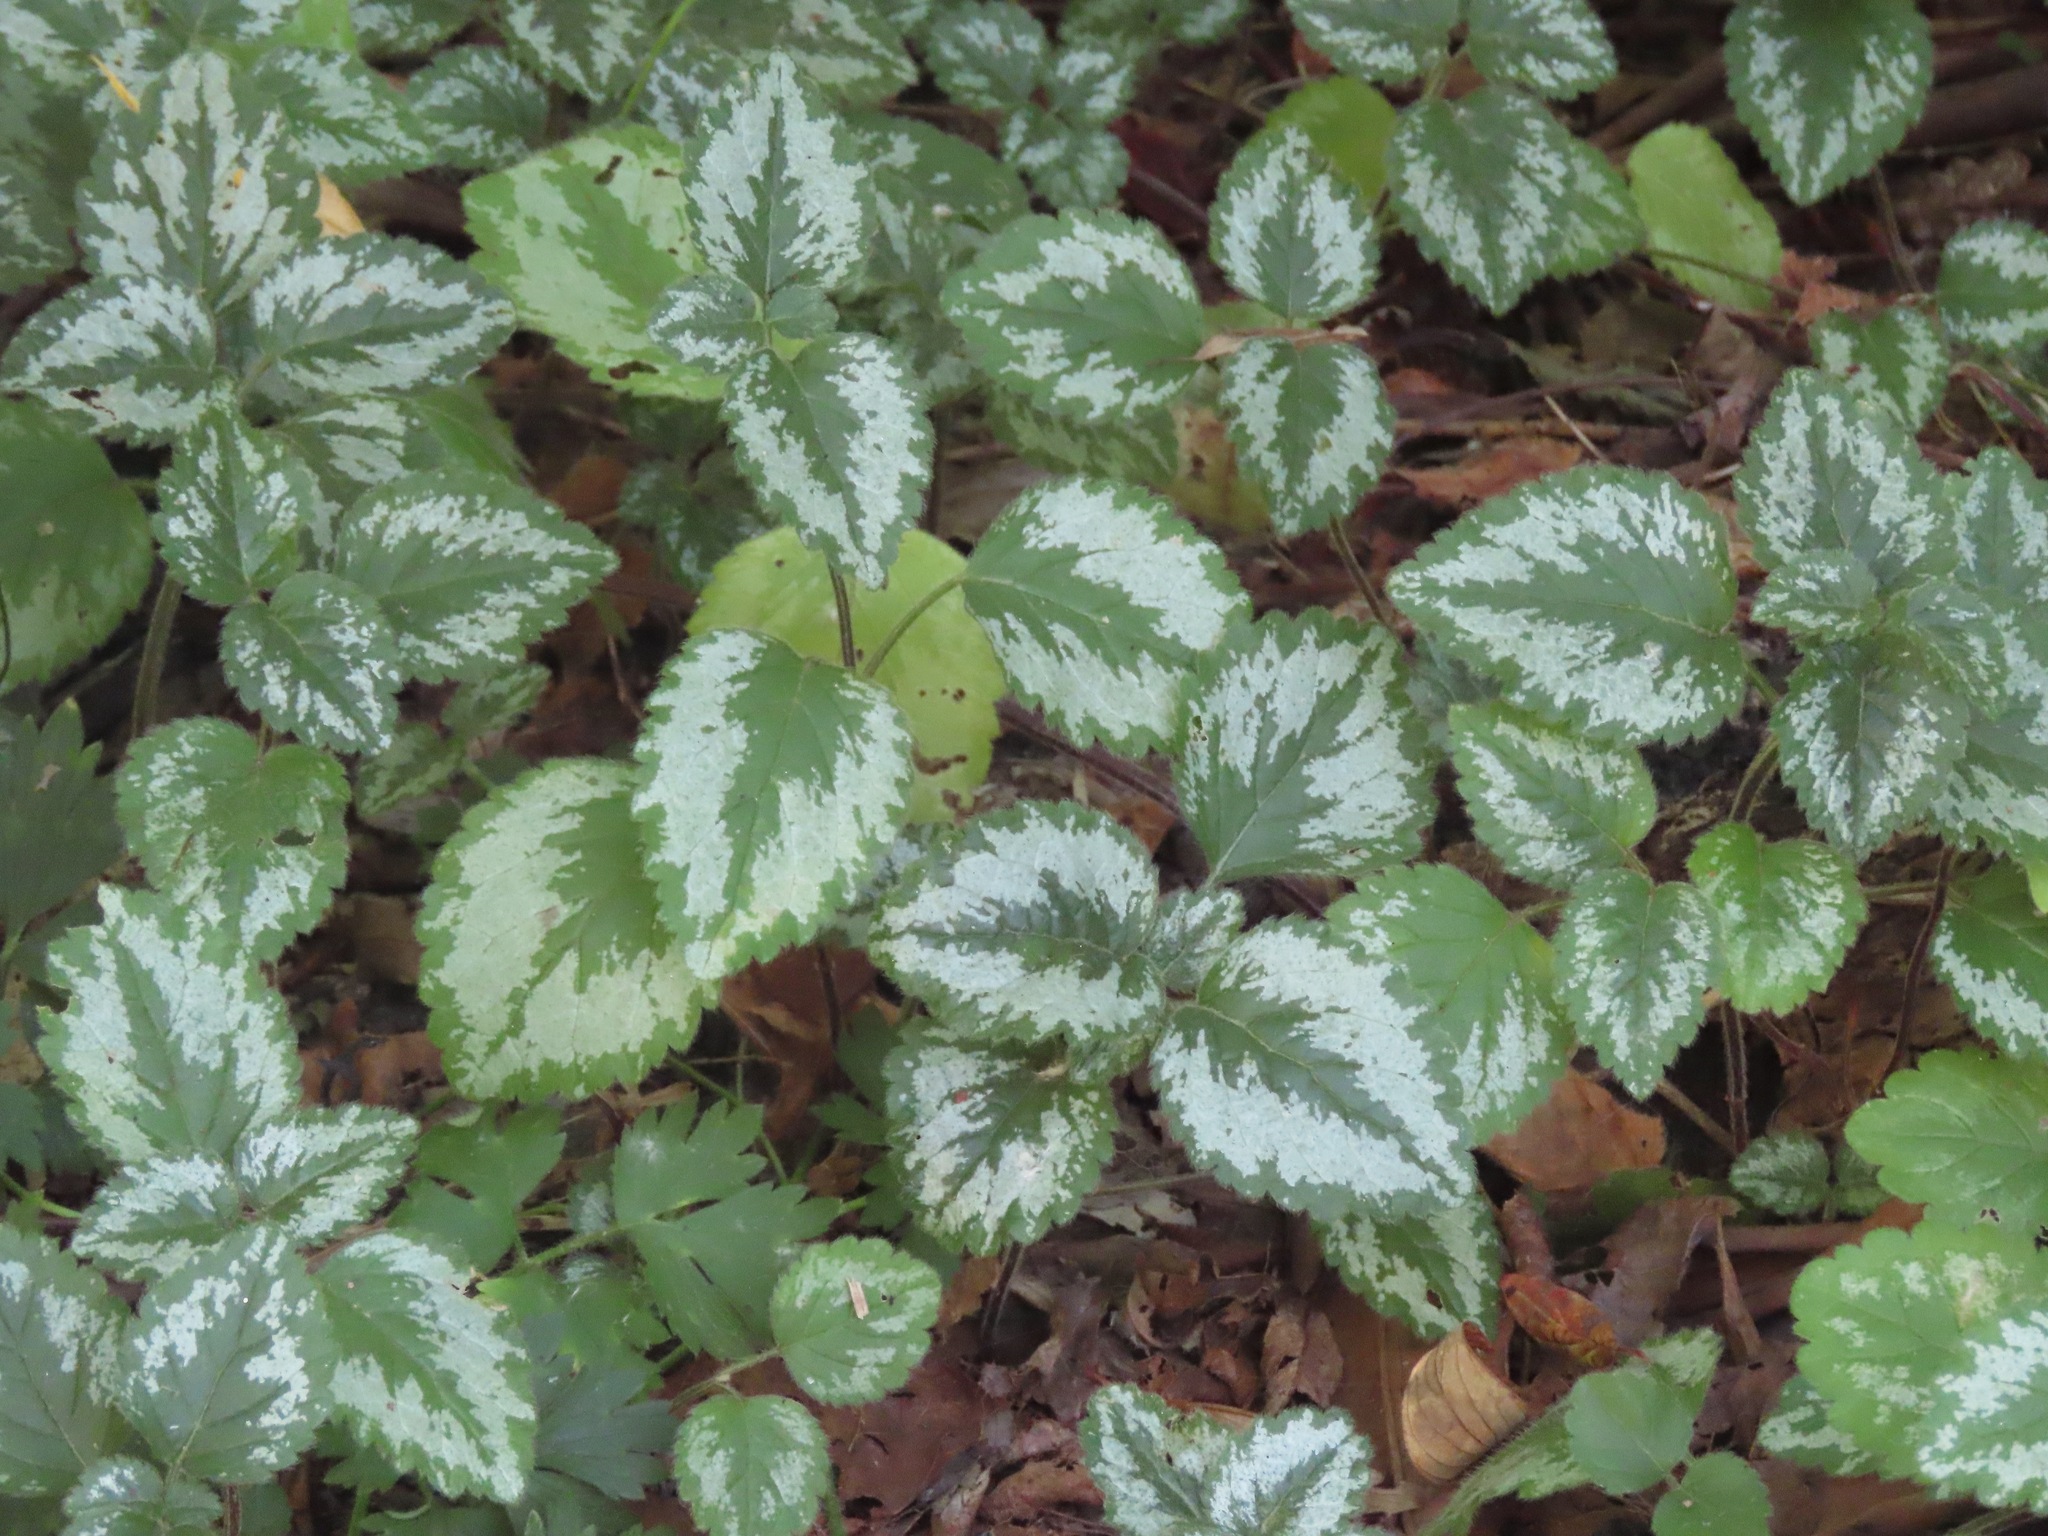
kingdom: Plantae
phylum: Tracheophyta
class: Magnoliopsida
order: Lamiales
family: Lamiaceae
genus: Lamium
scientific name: Lamium galeobdolon
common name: Yellow archangel
